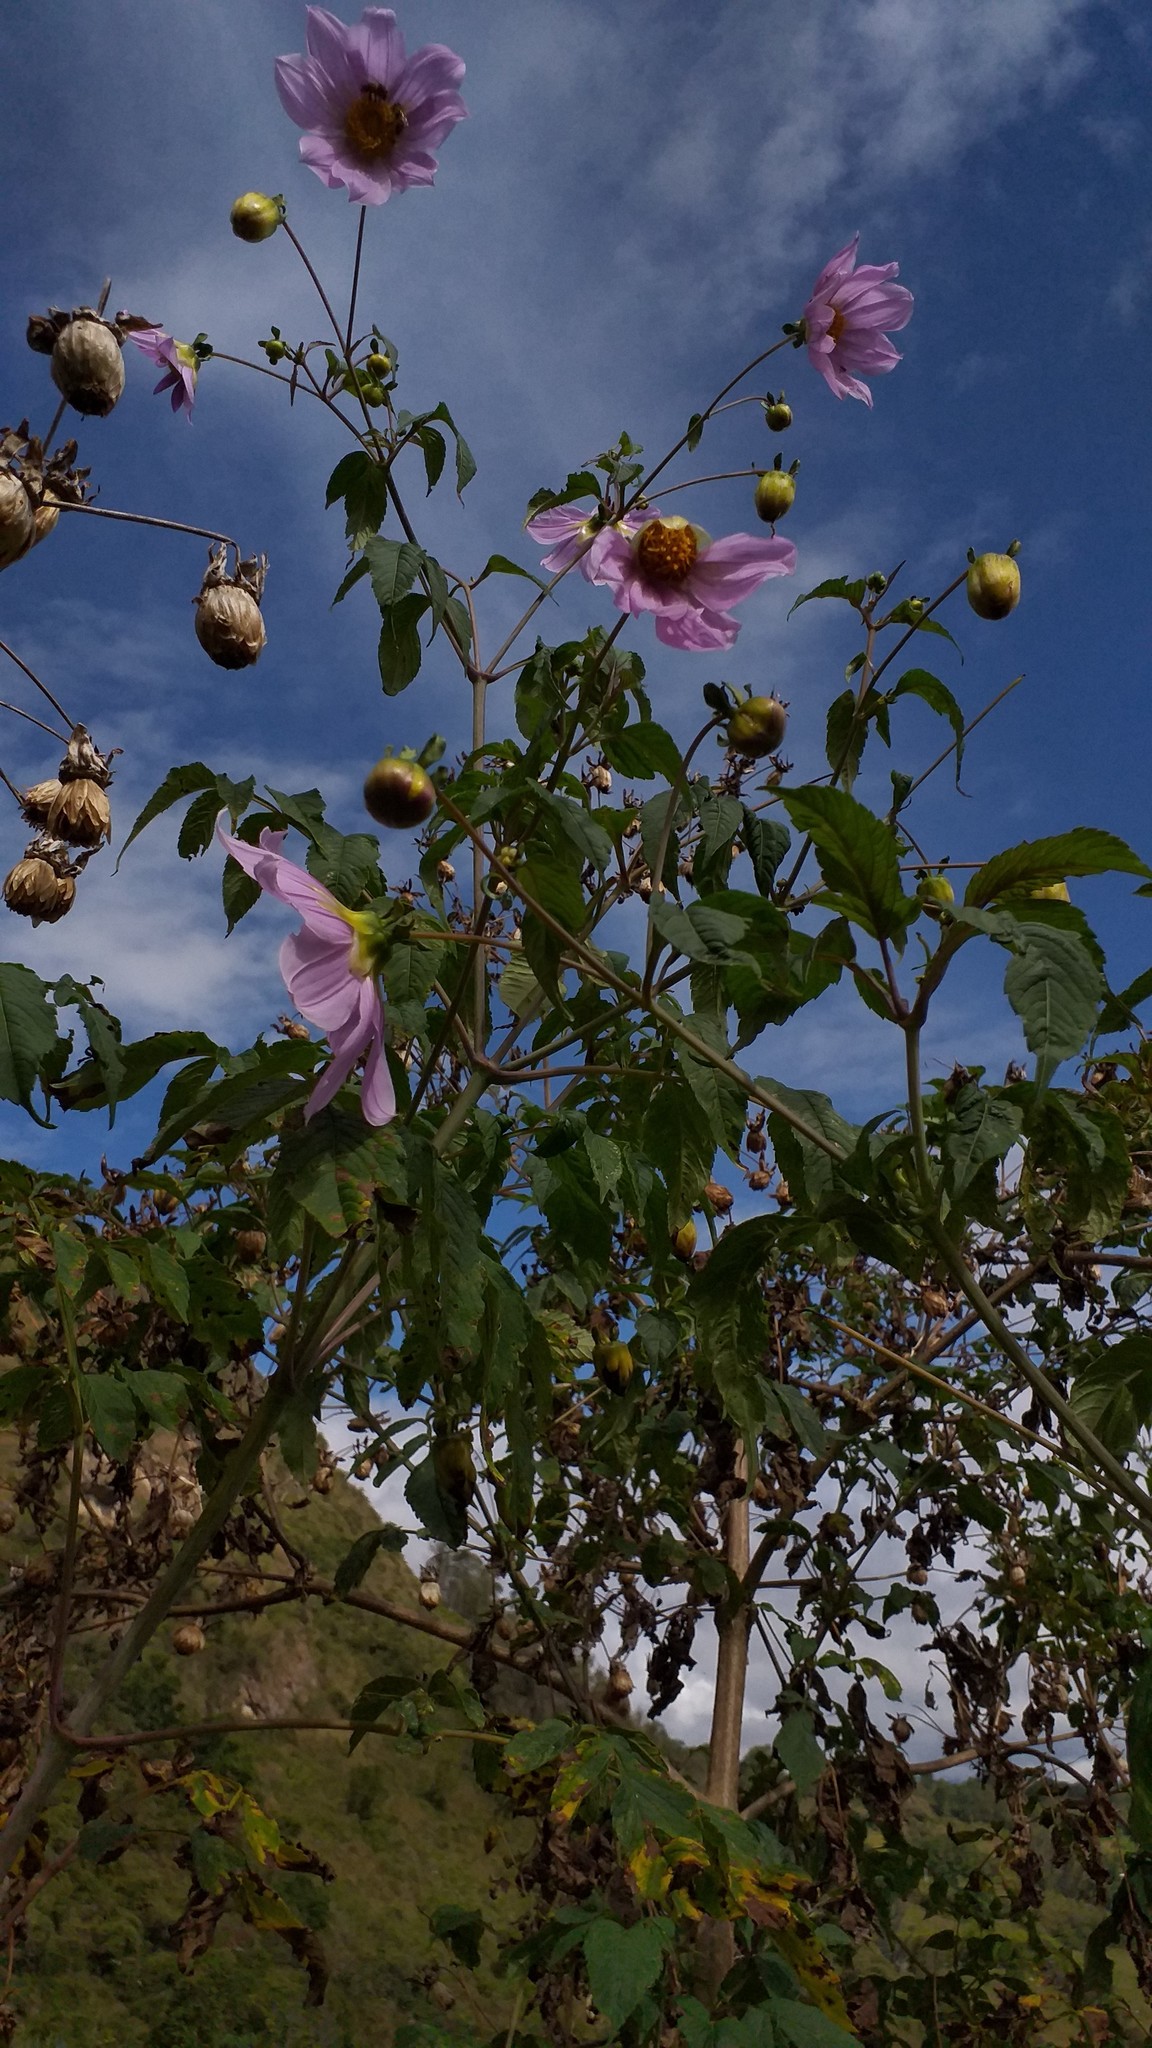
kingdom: Plantae
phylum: Tracheophyta
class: Magnoliopsida
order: Asterales
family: Asteraceae
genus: Dahlia
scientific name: Dahlia imperialis
